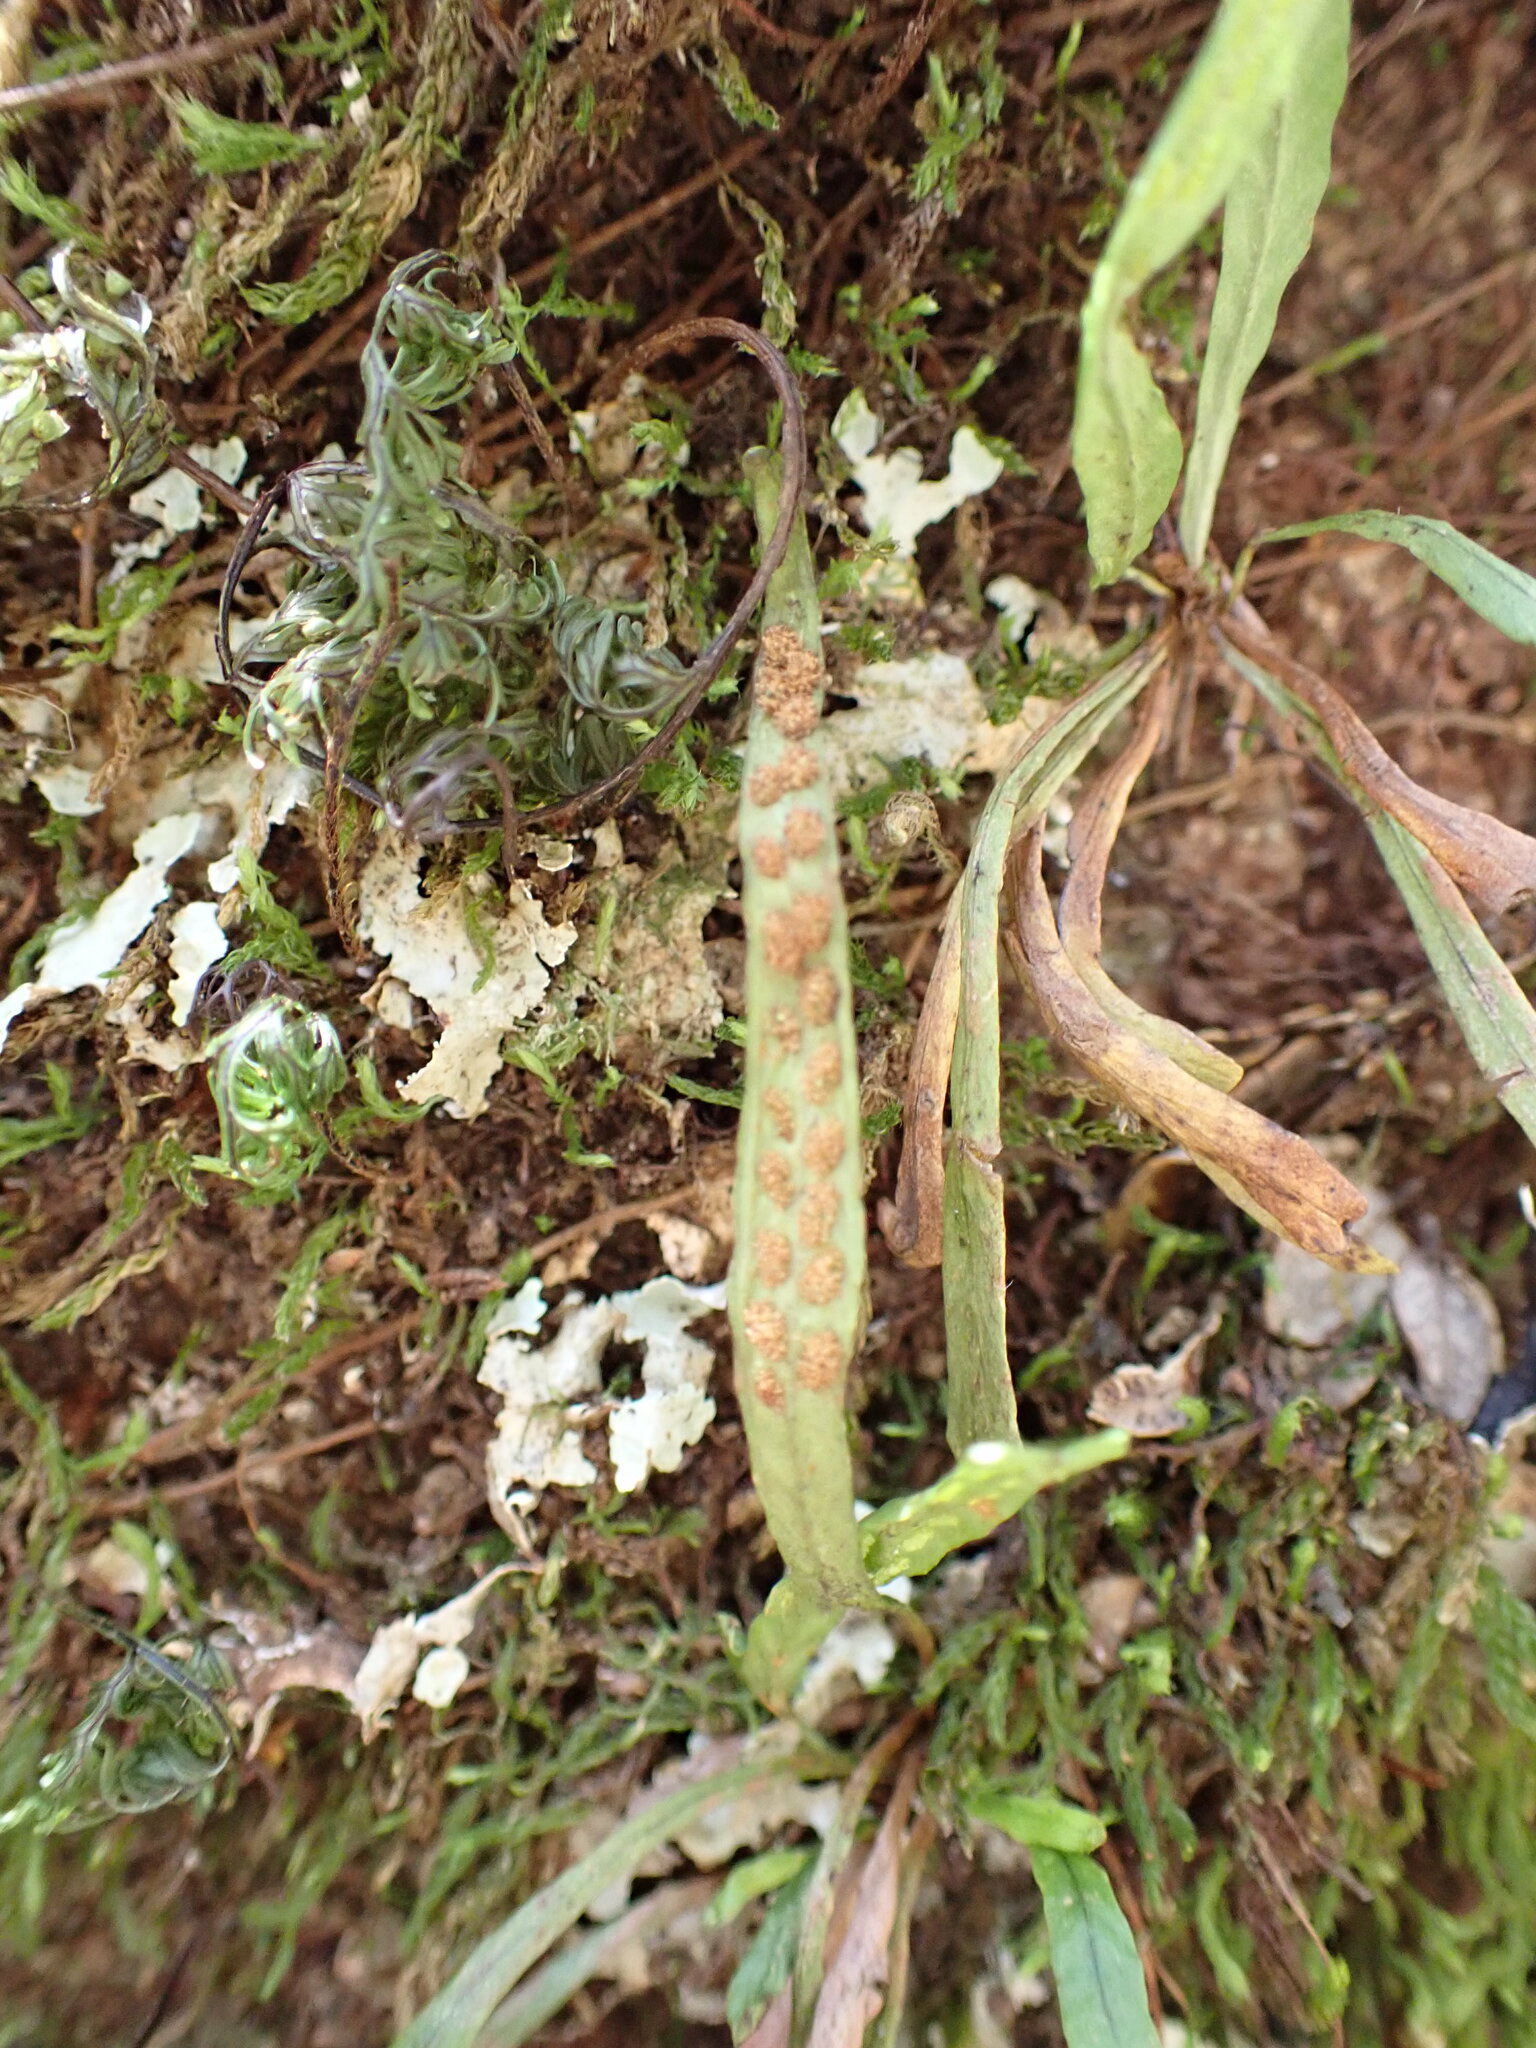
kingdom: Plantae
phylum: Tracheophyta
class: Polypodiopsida
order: Polypodiales
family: Polypodiaceae
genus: Notogrammitis
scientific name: Notogrammitis angustifolia
